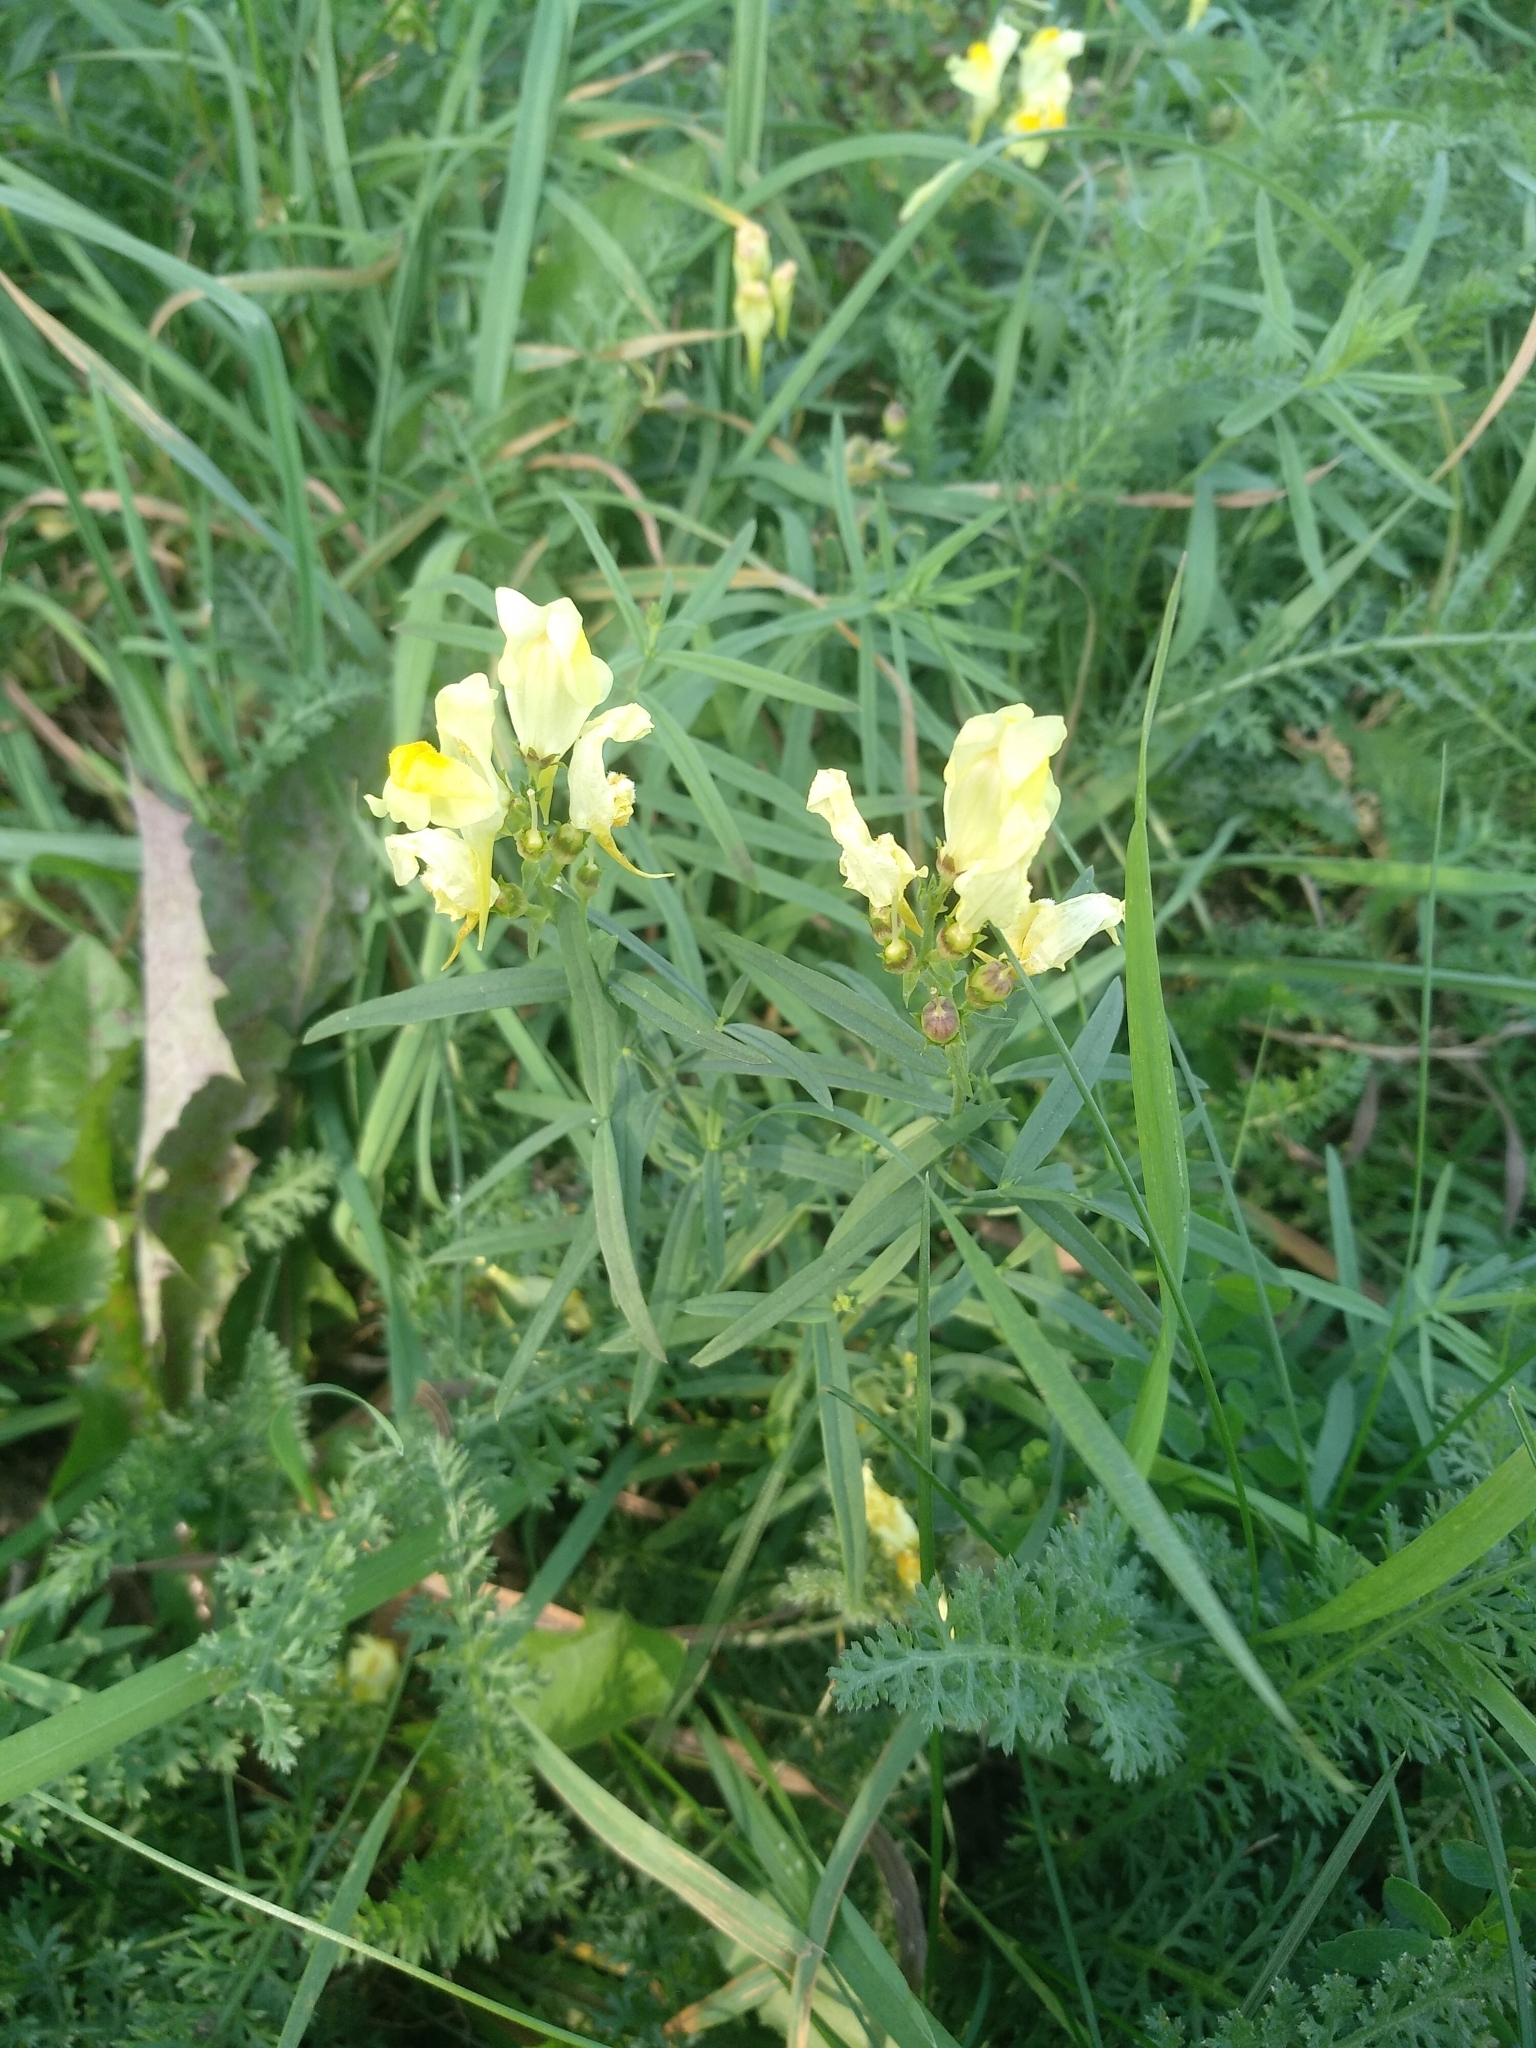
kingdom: Plantae
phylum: Tracheophyta
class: Magnoliopsida
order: Lamiales
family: Plantaginaceae
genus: Linaria
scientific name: Linaria vulgaris
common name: Butter and eggs
